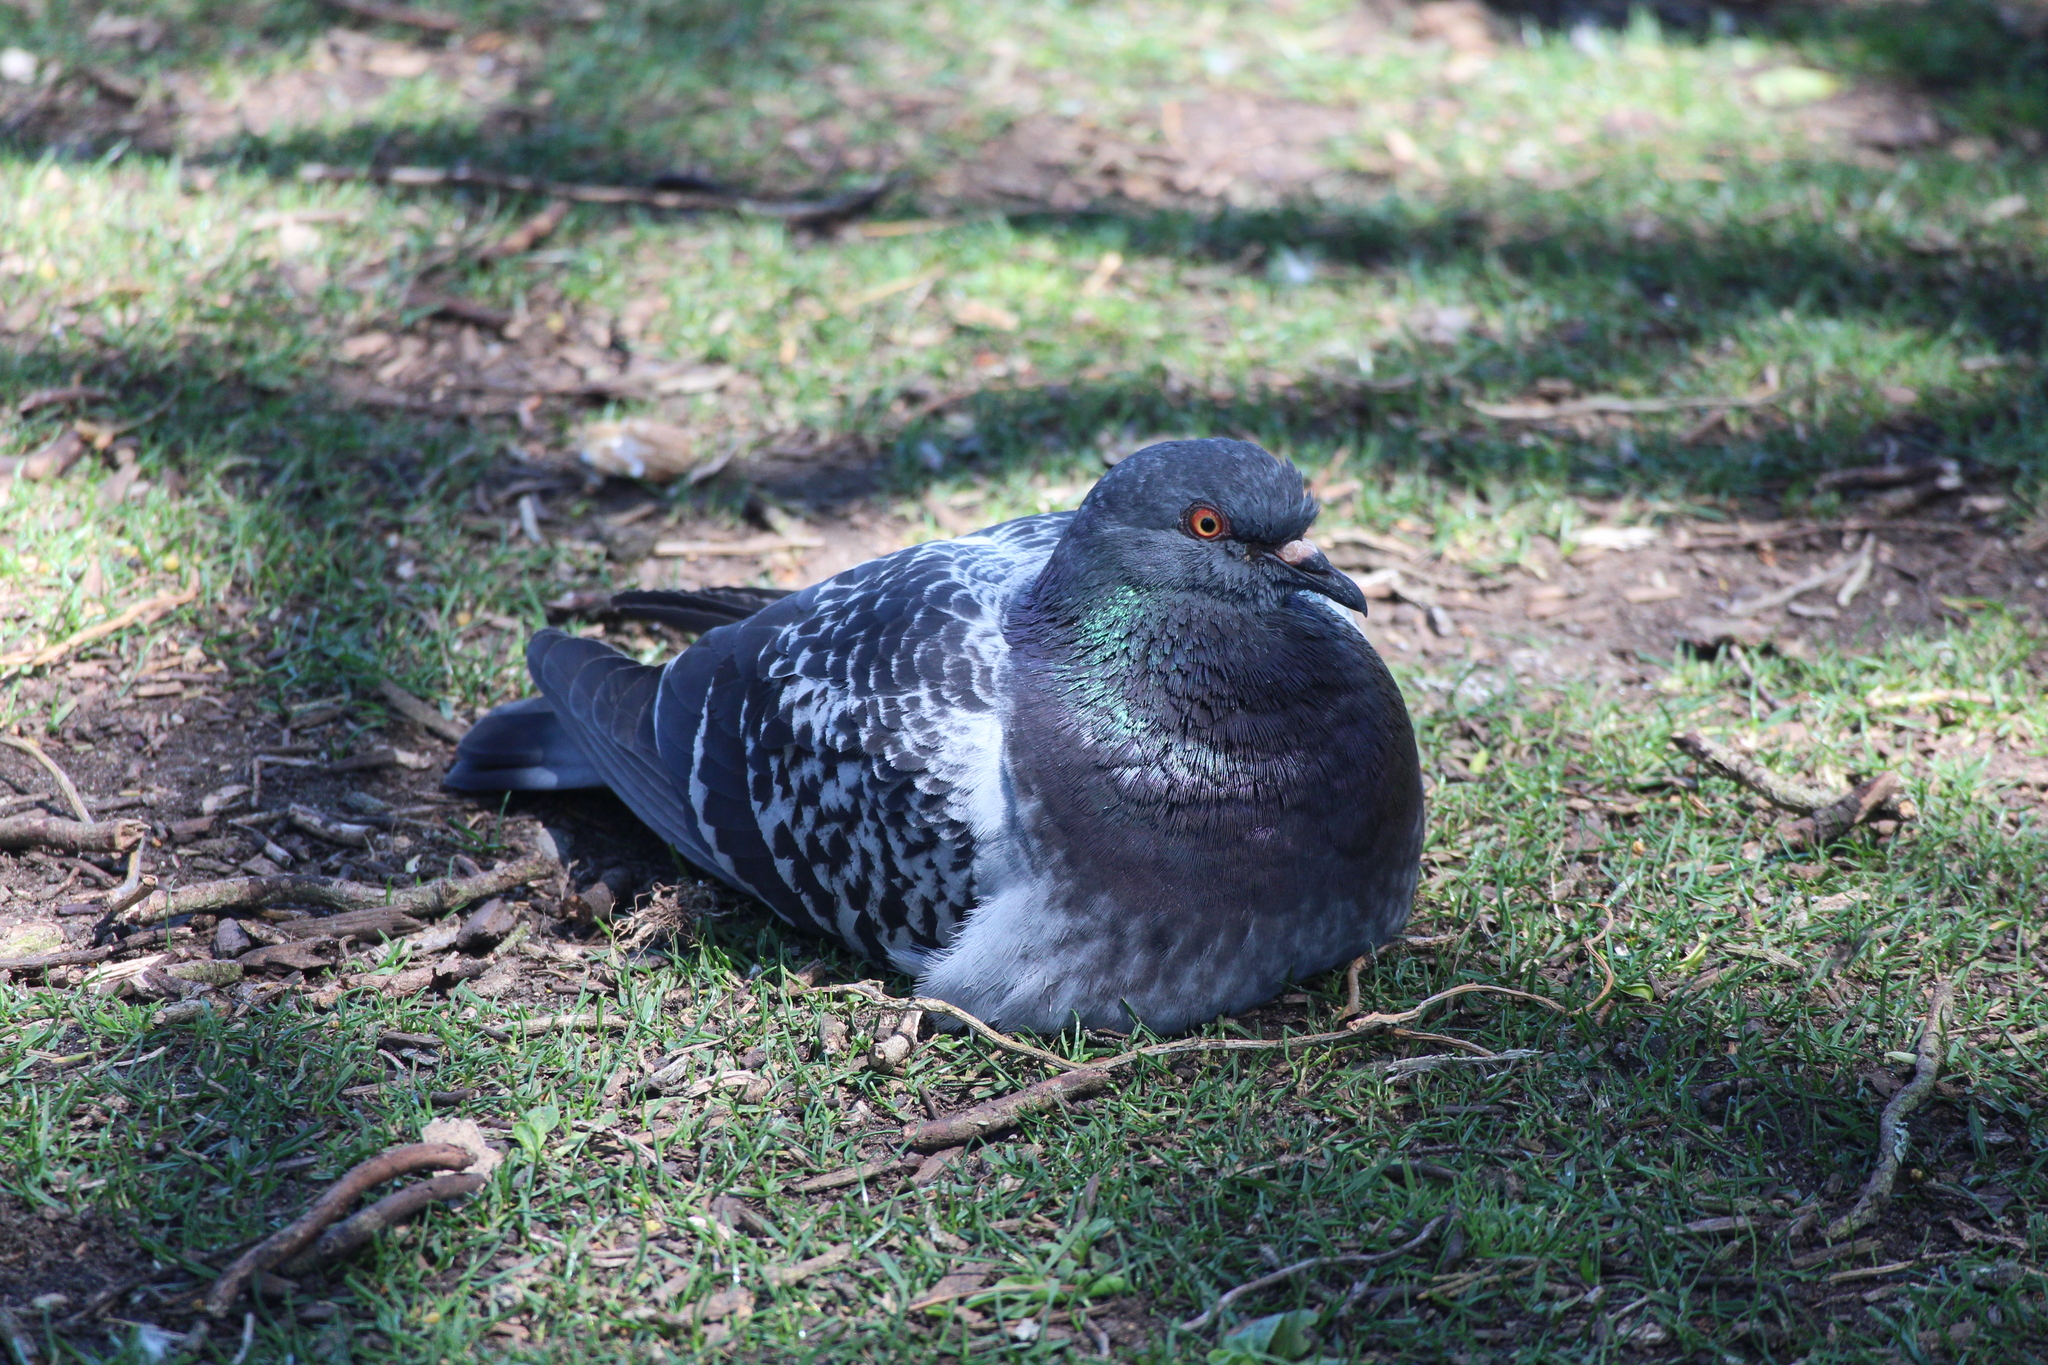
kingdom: Animalia
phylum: Chordata
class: Aves
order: Columbiformes
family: Columbidae
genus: Columba
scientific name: Columba livia
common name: Rock pigeon
